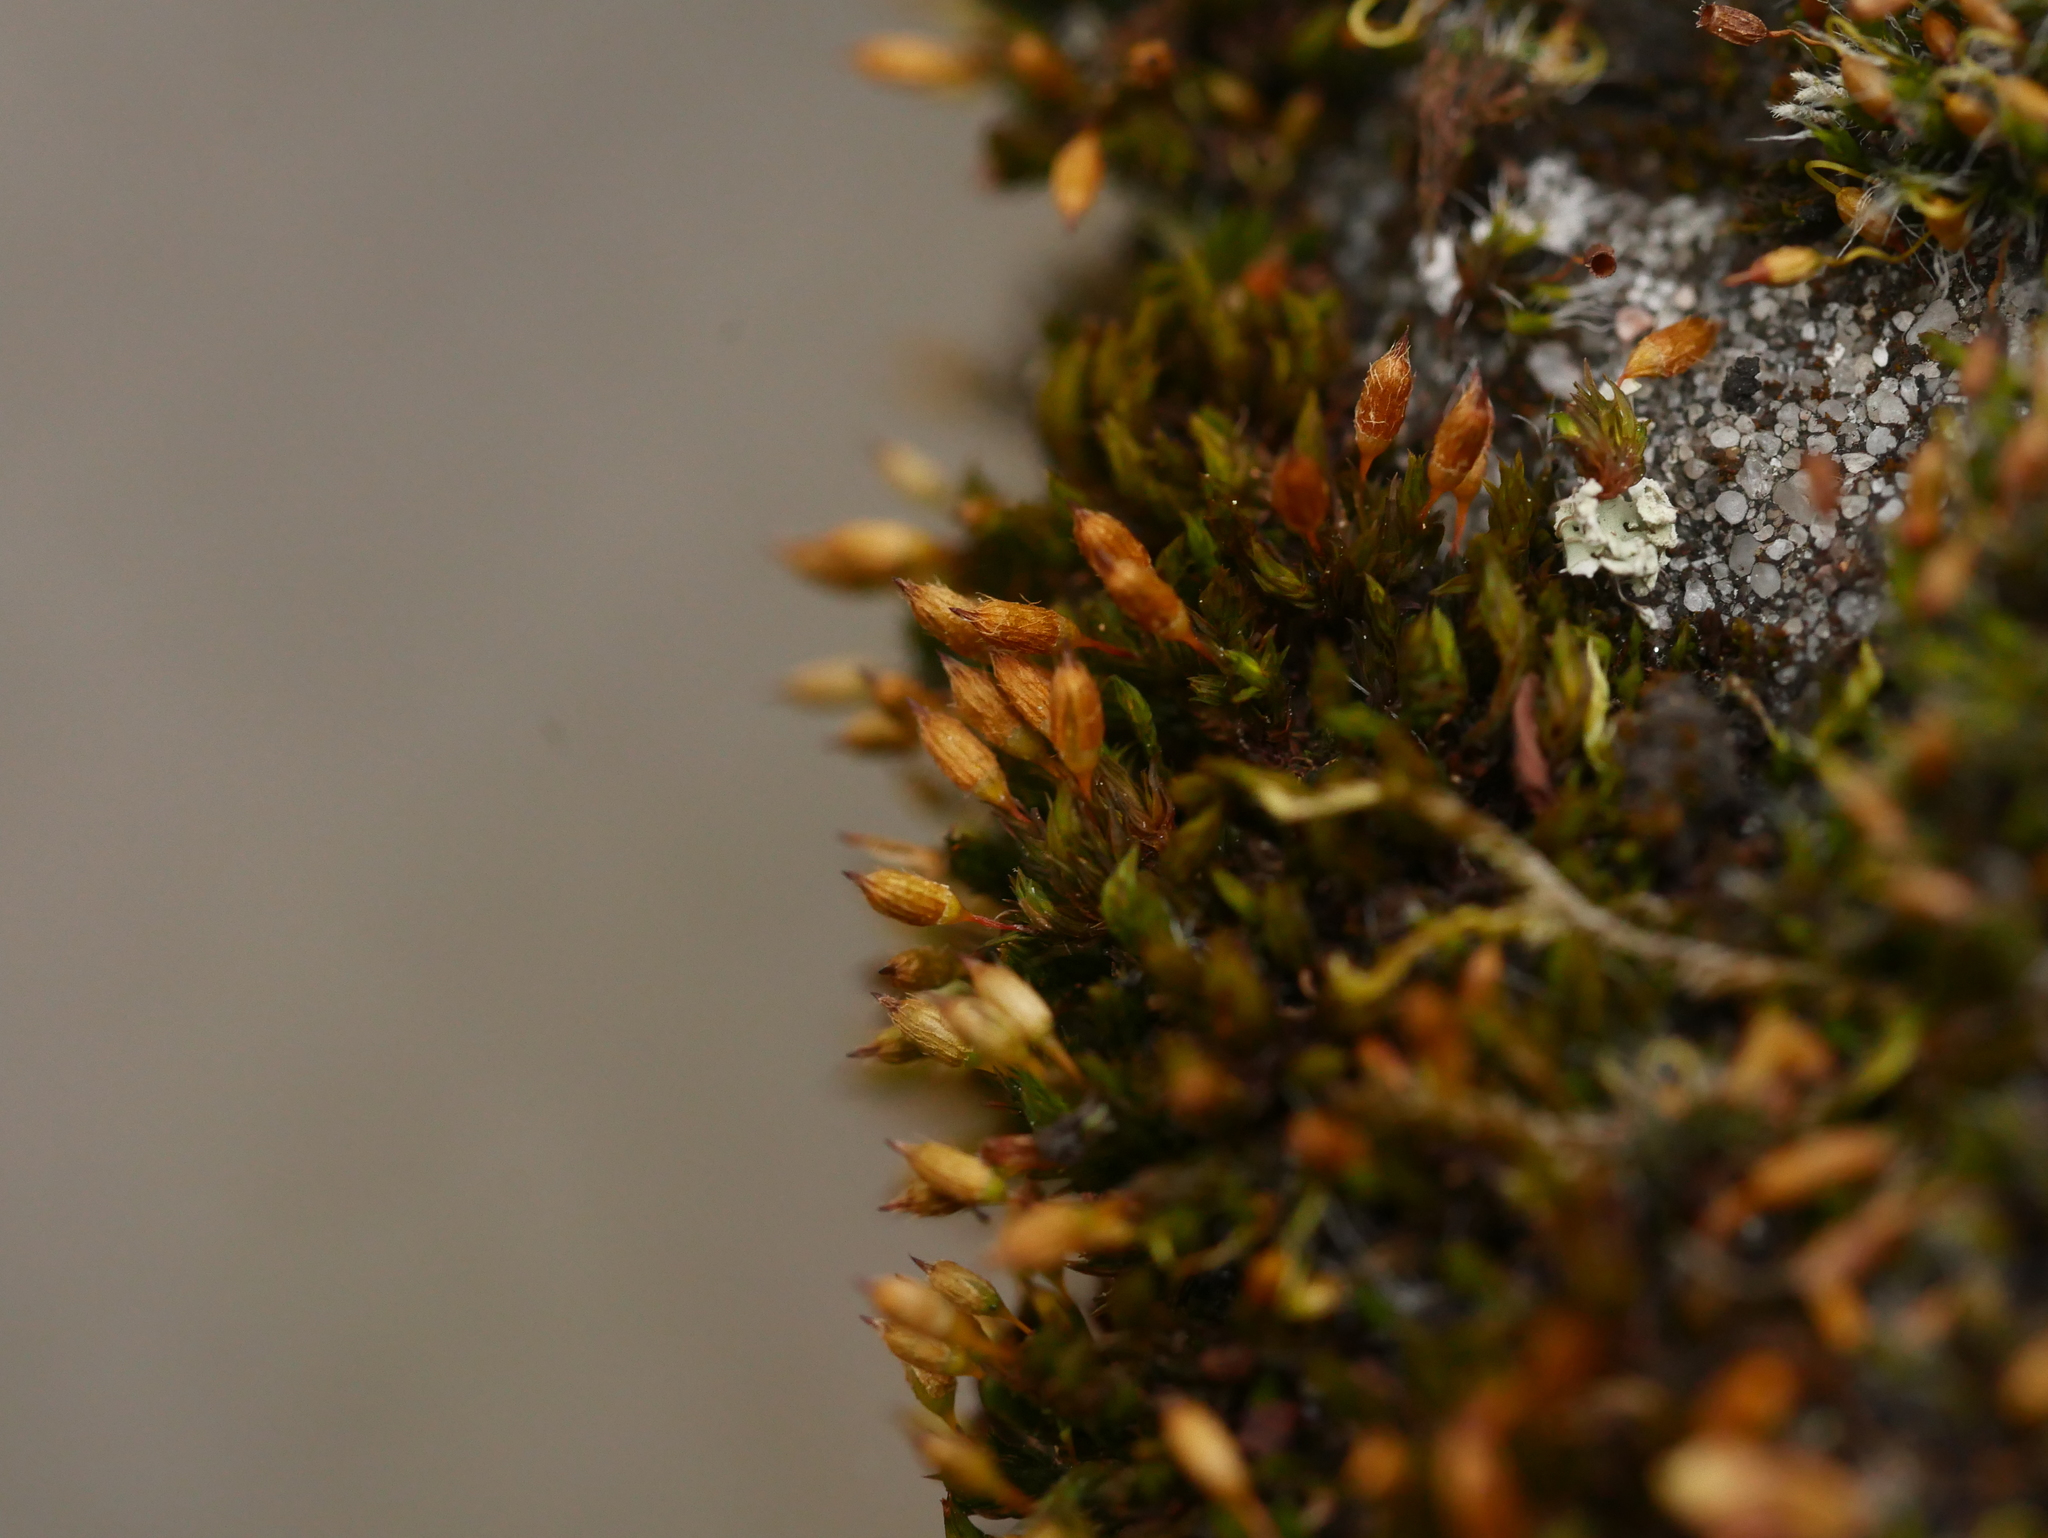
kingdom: Plantae
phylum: Bryophyta
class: Bryopsida
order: Orthotrichales
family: Orthotrichaceae
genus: Orthotrichum
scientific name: Orthotrichum anomalum
